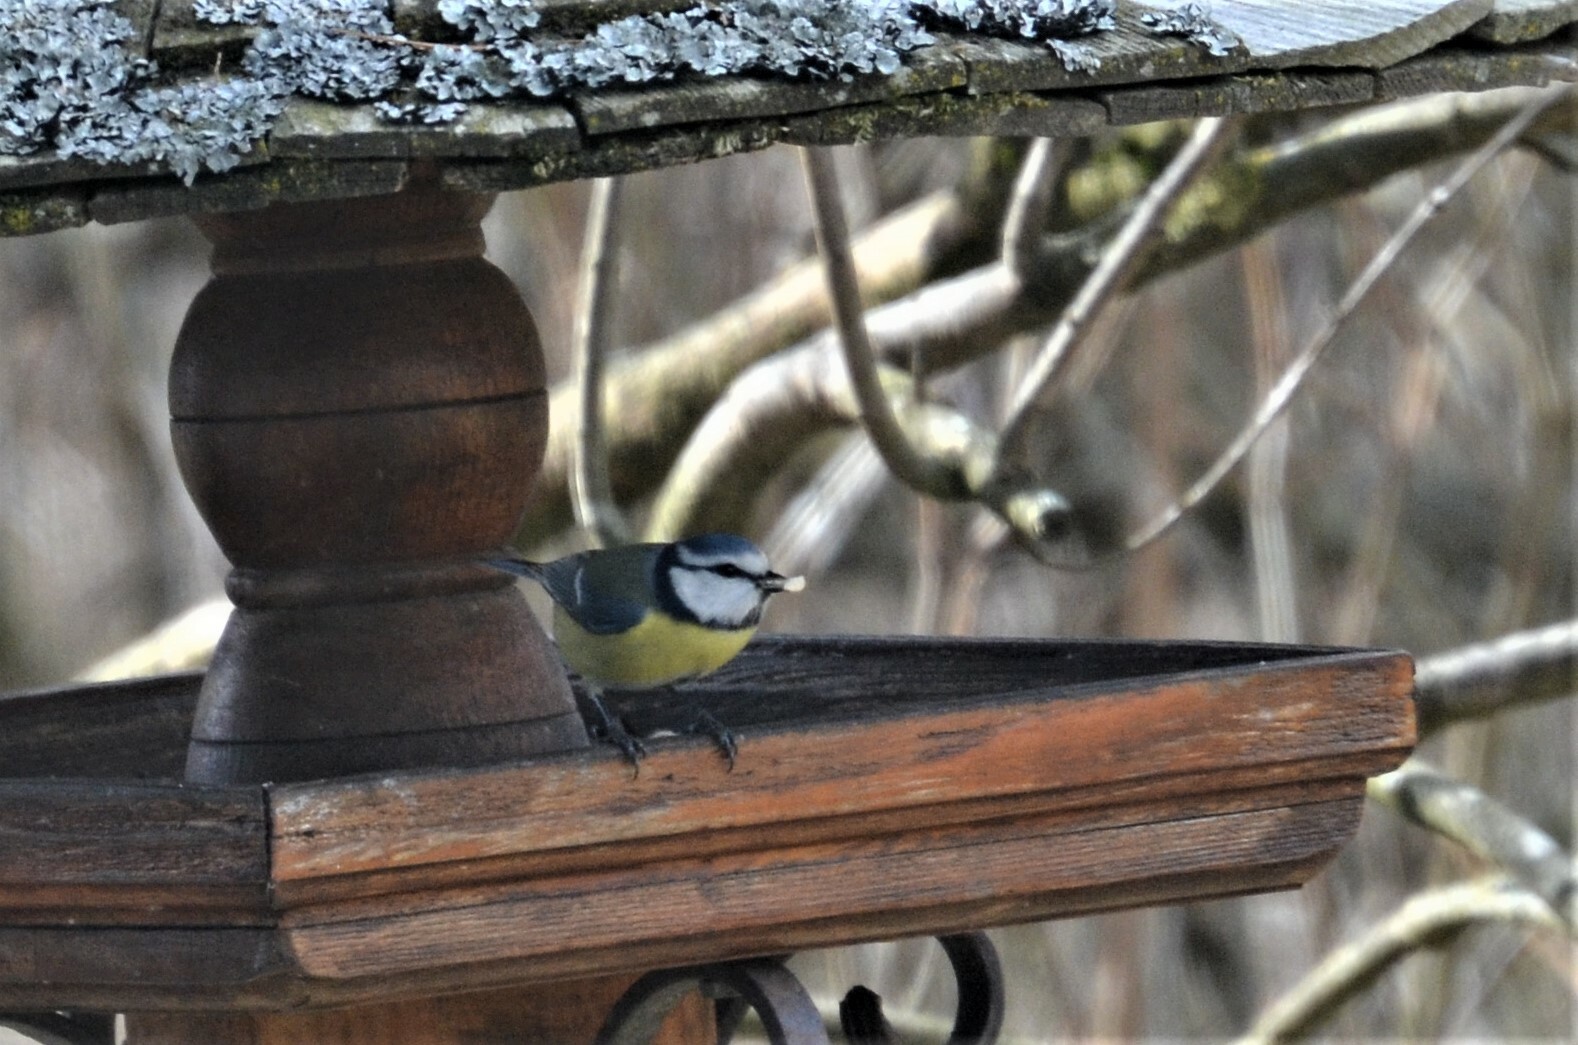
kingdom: Animalia
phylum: Chordata
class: Aves
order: Passeriformes
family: Paridae
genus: Cyanistes
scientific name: Cyanistes caeruleus
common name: Eurasian blue tit
